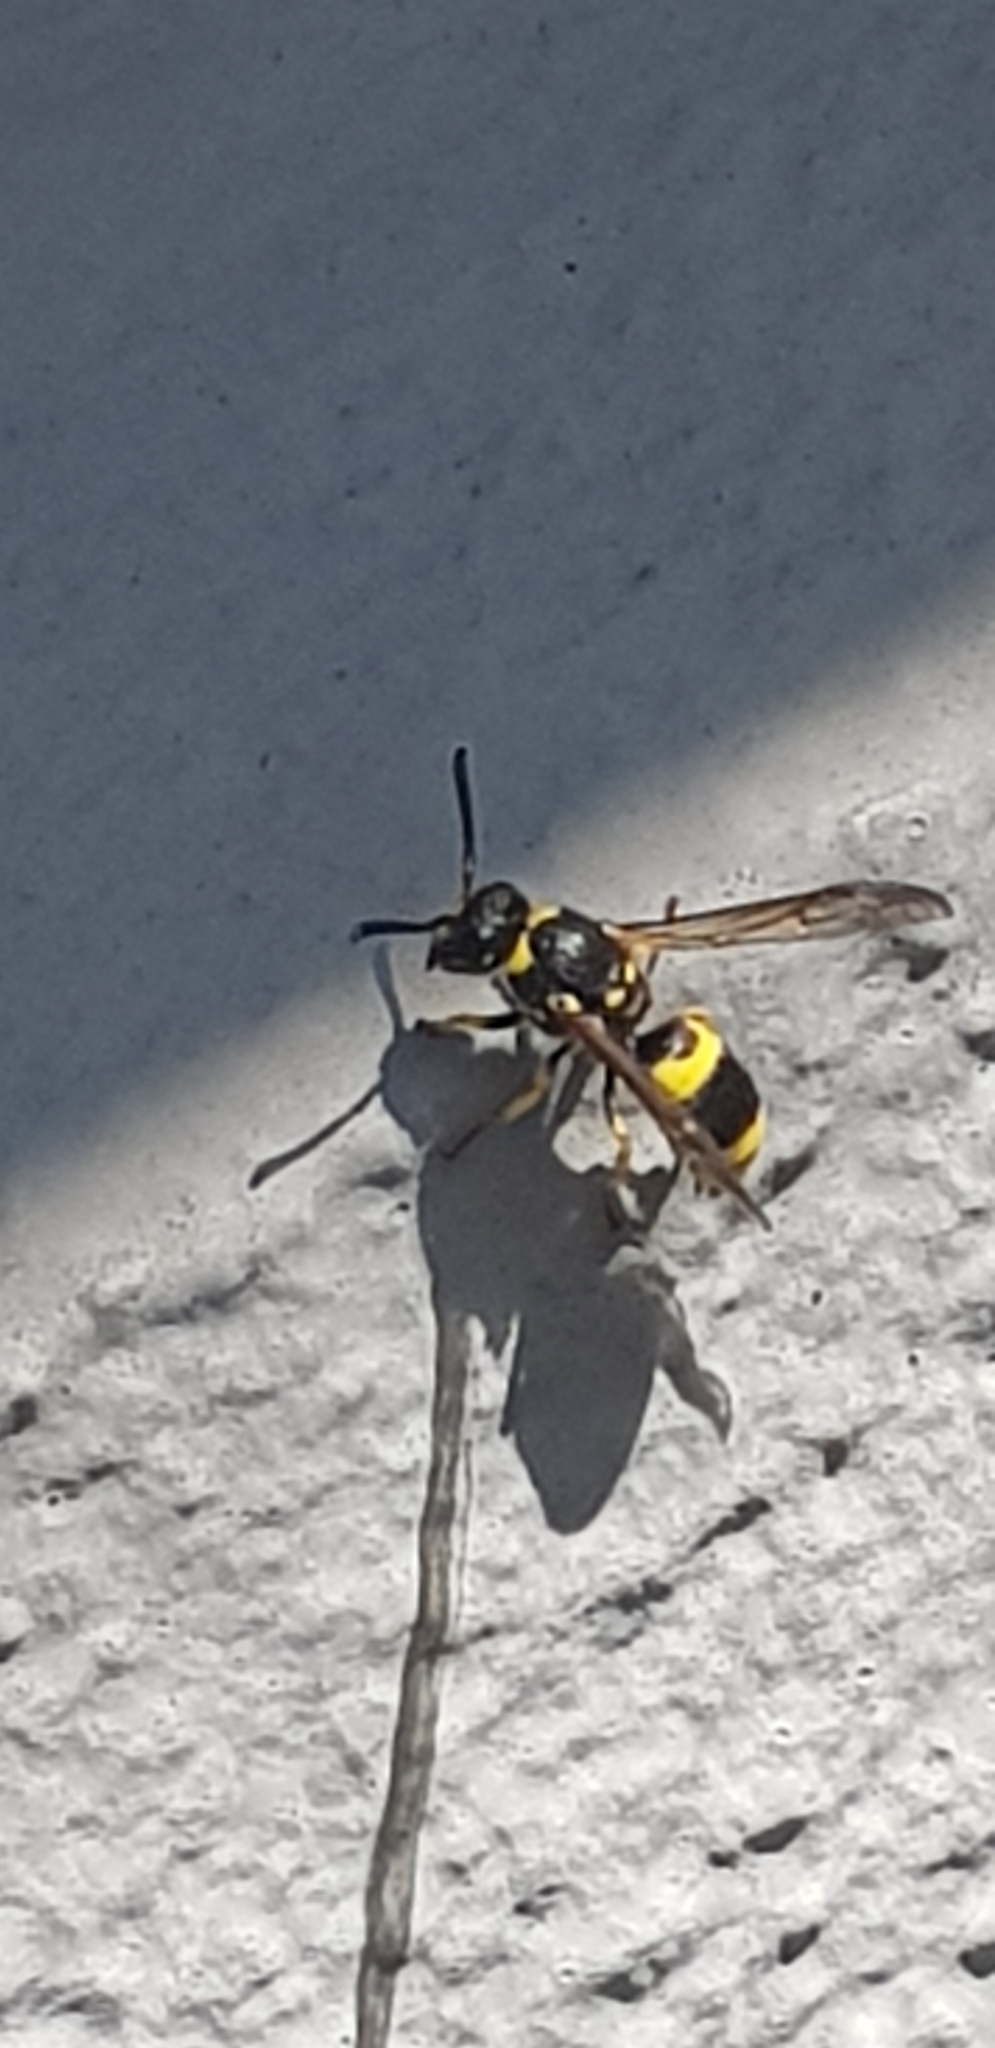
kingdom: Animalia
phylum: Arthropoda
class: Insecta
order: Hymenoptera
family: Vespidae
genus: Ancistrocerus
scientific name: Ancistrocerus gazella
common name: European tube wasp
